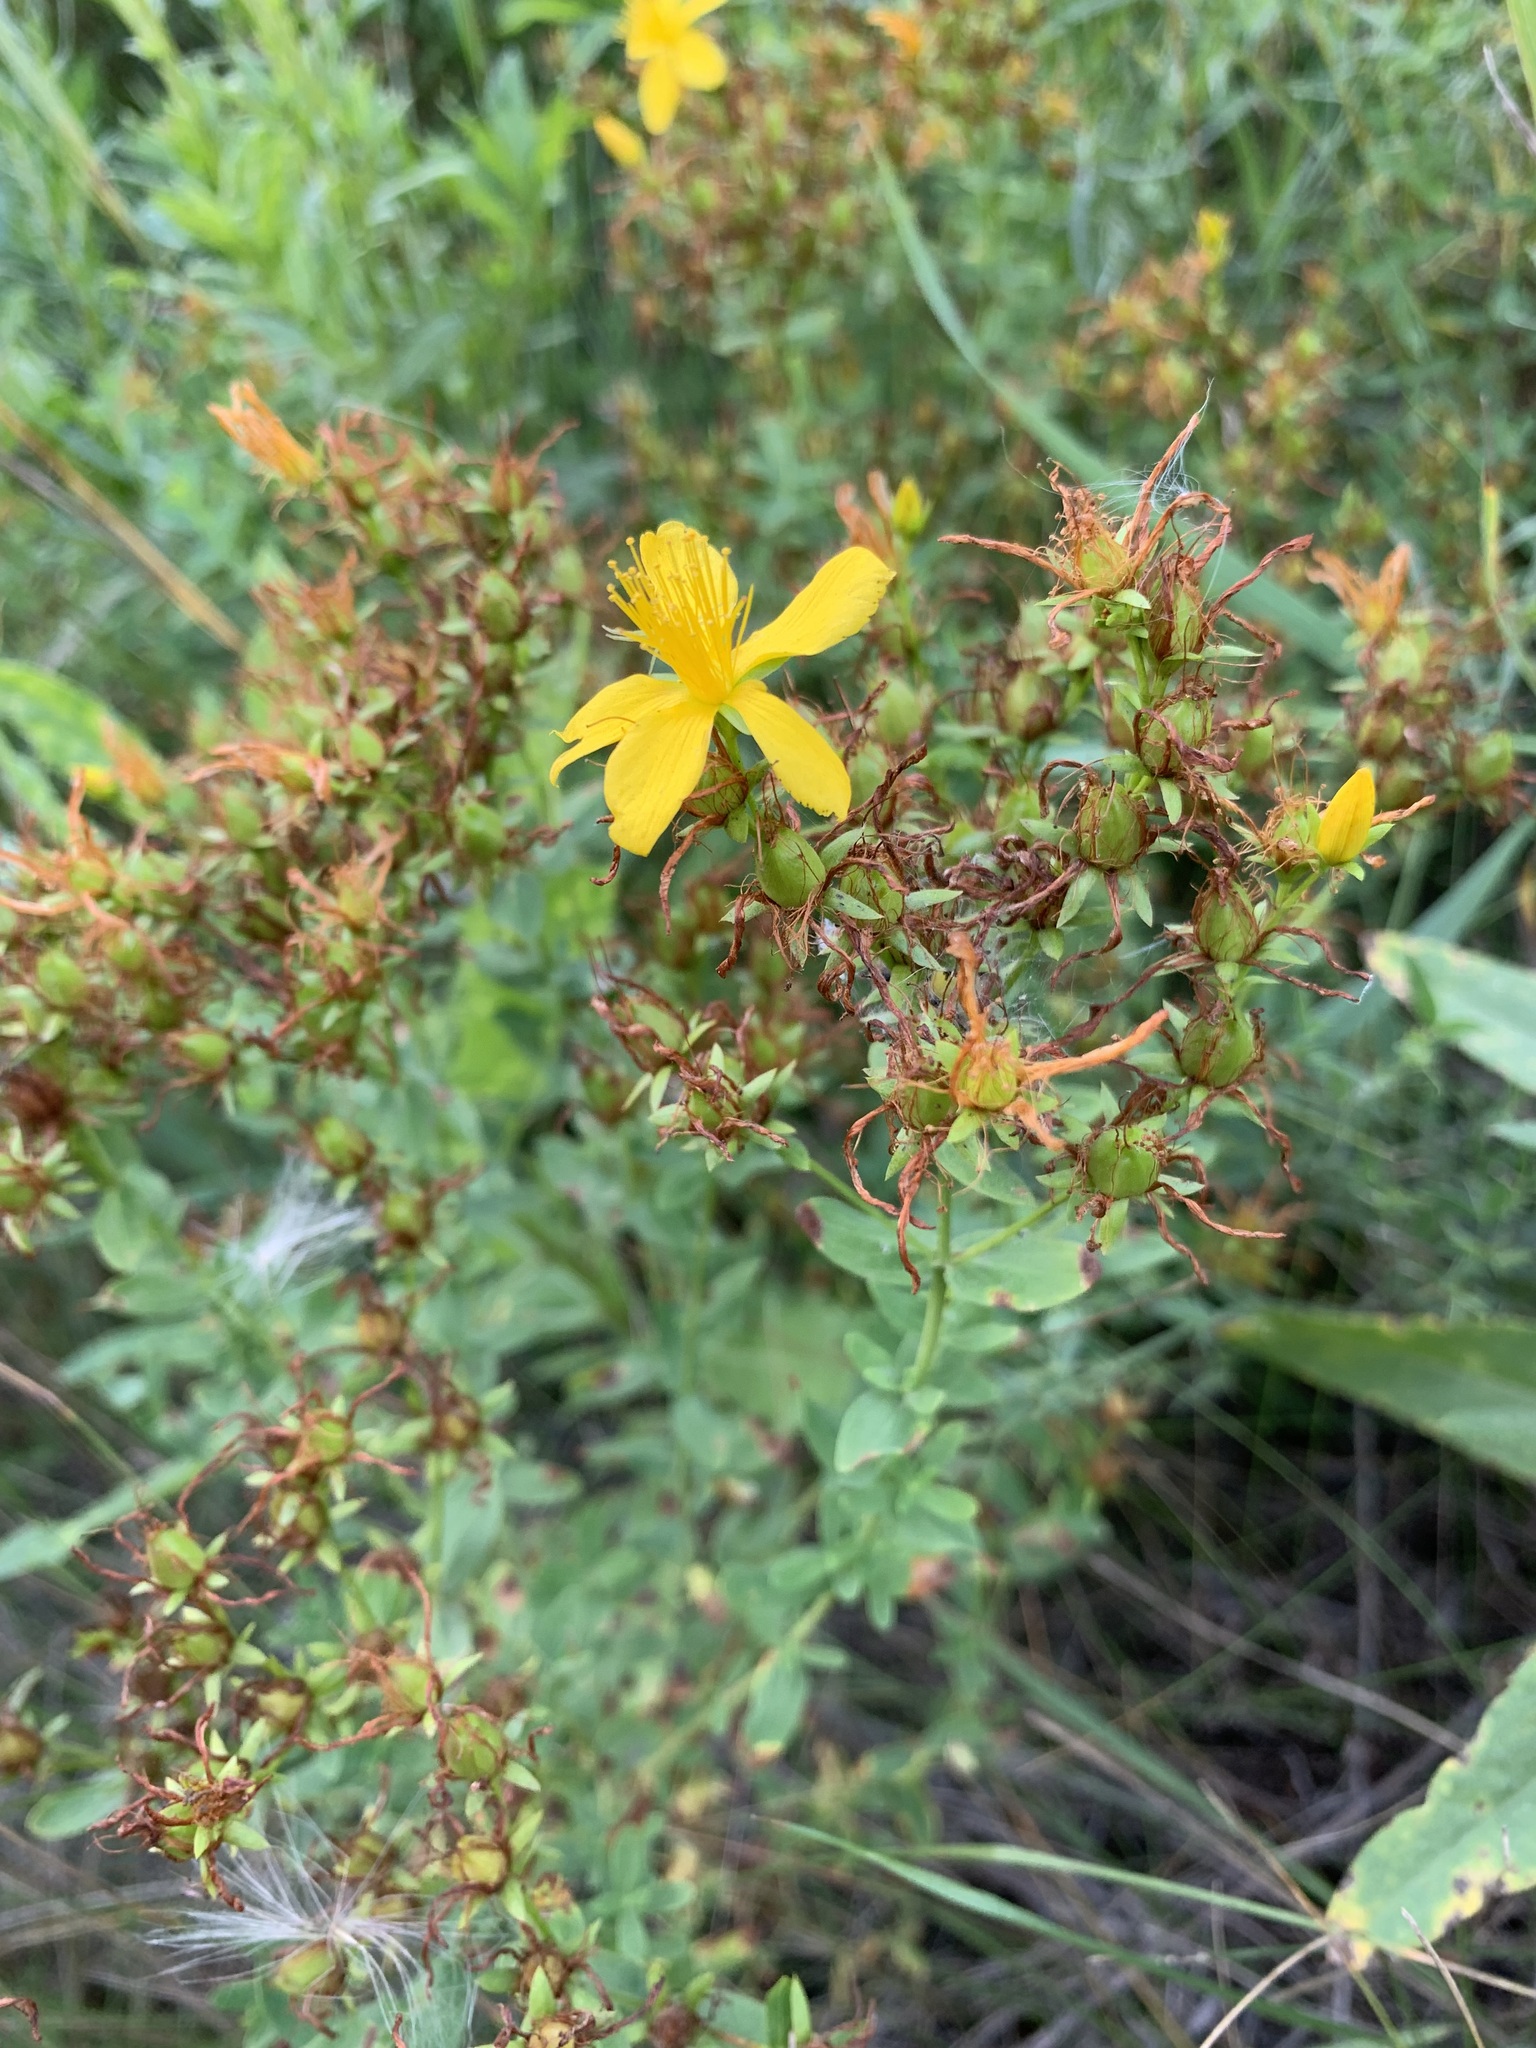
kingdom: Plantae
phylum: Tracheophyta
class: Magnoliopsida
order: Malpighiales
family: Hypericaceae
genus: Hypericum
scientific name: Hypericum perforatum
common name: Common st. johnswort
